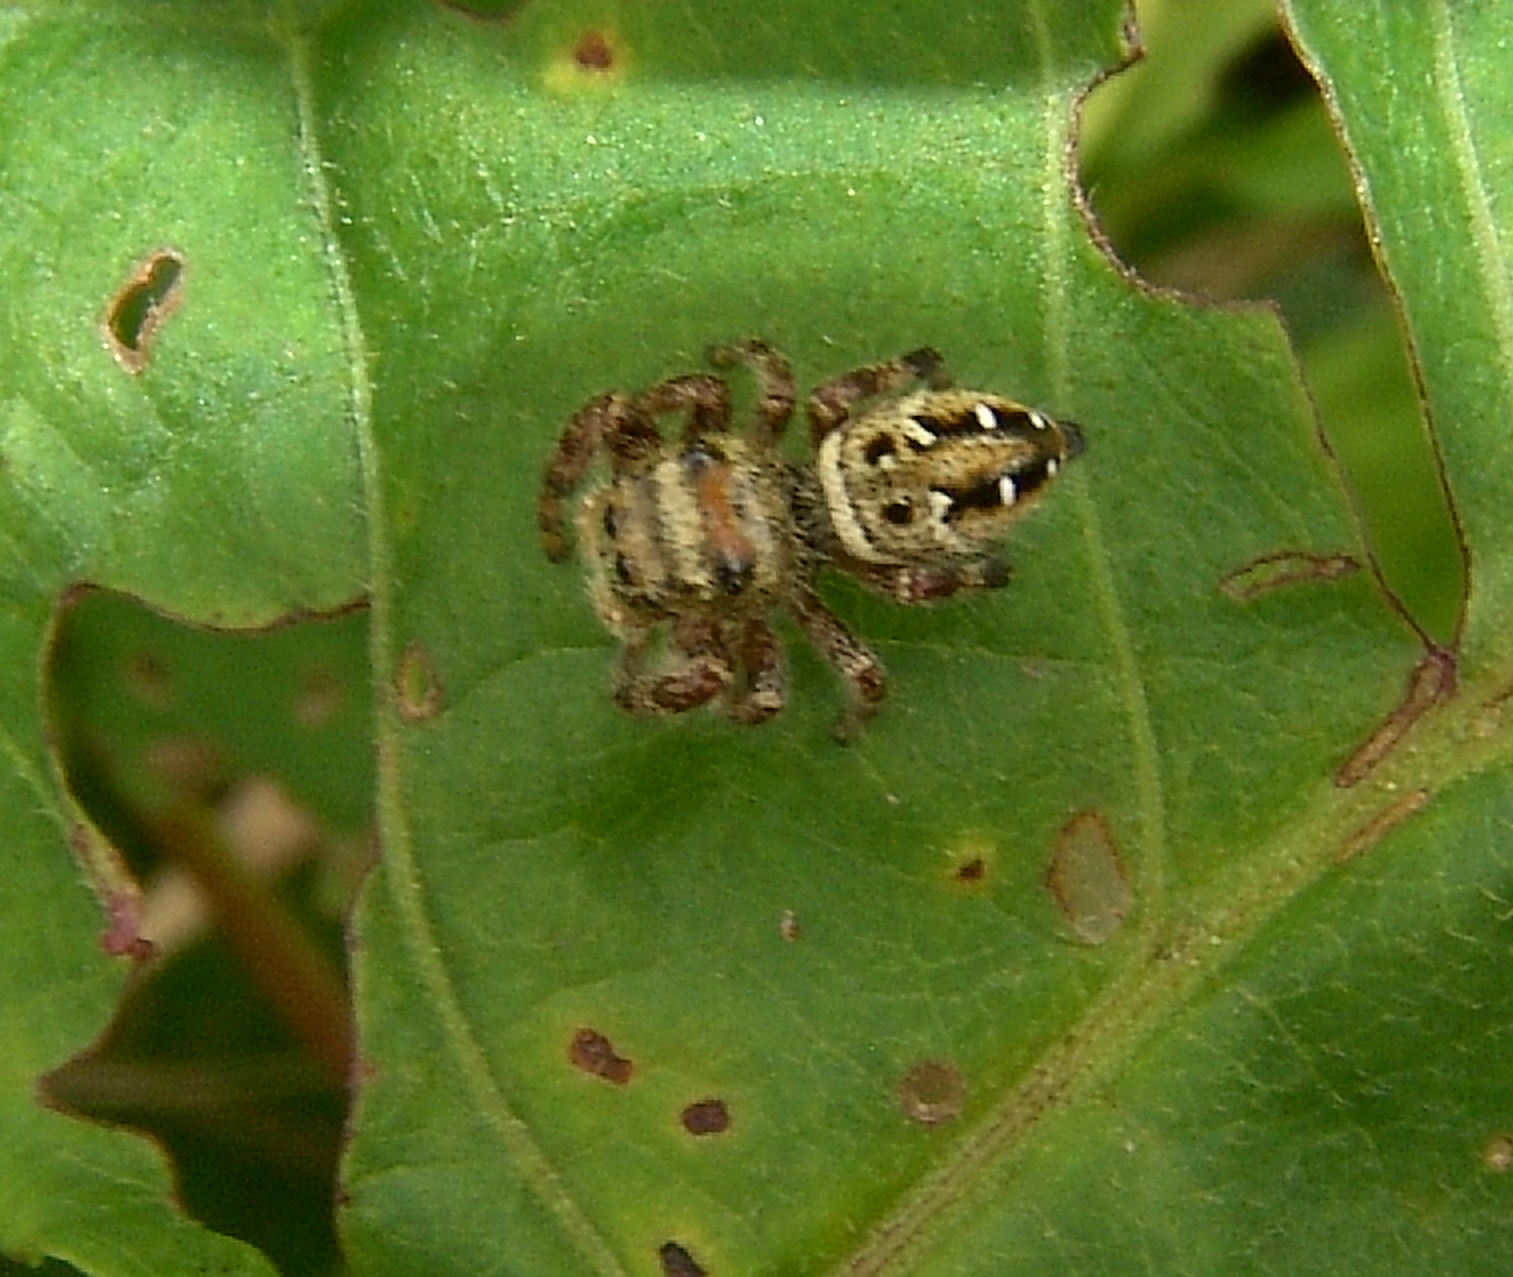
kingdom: Animalia
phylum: Arthropoda
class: Arachnida
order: Araneae
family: Salticidae
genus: Phidippus
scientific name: Phidippus clarus
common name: Brilliant jumping spider
